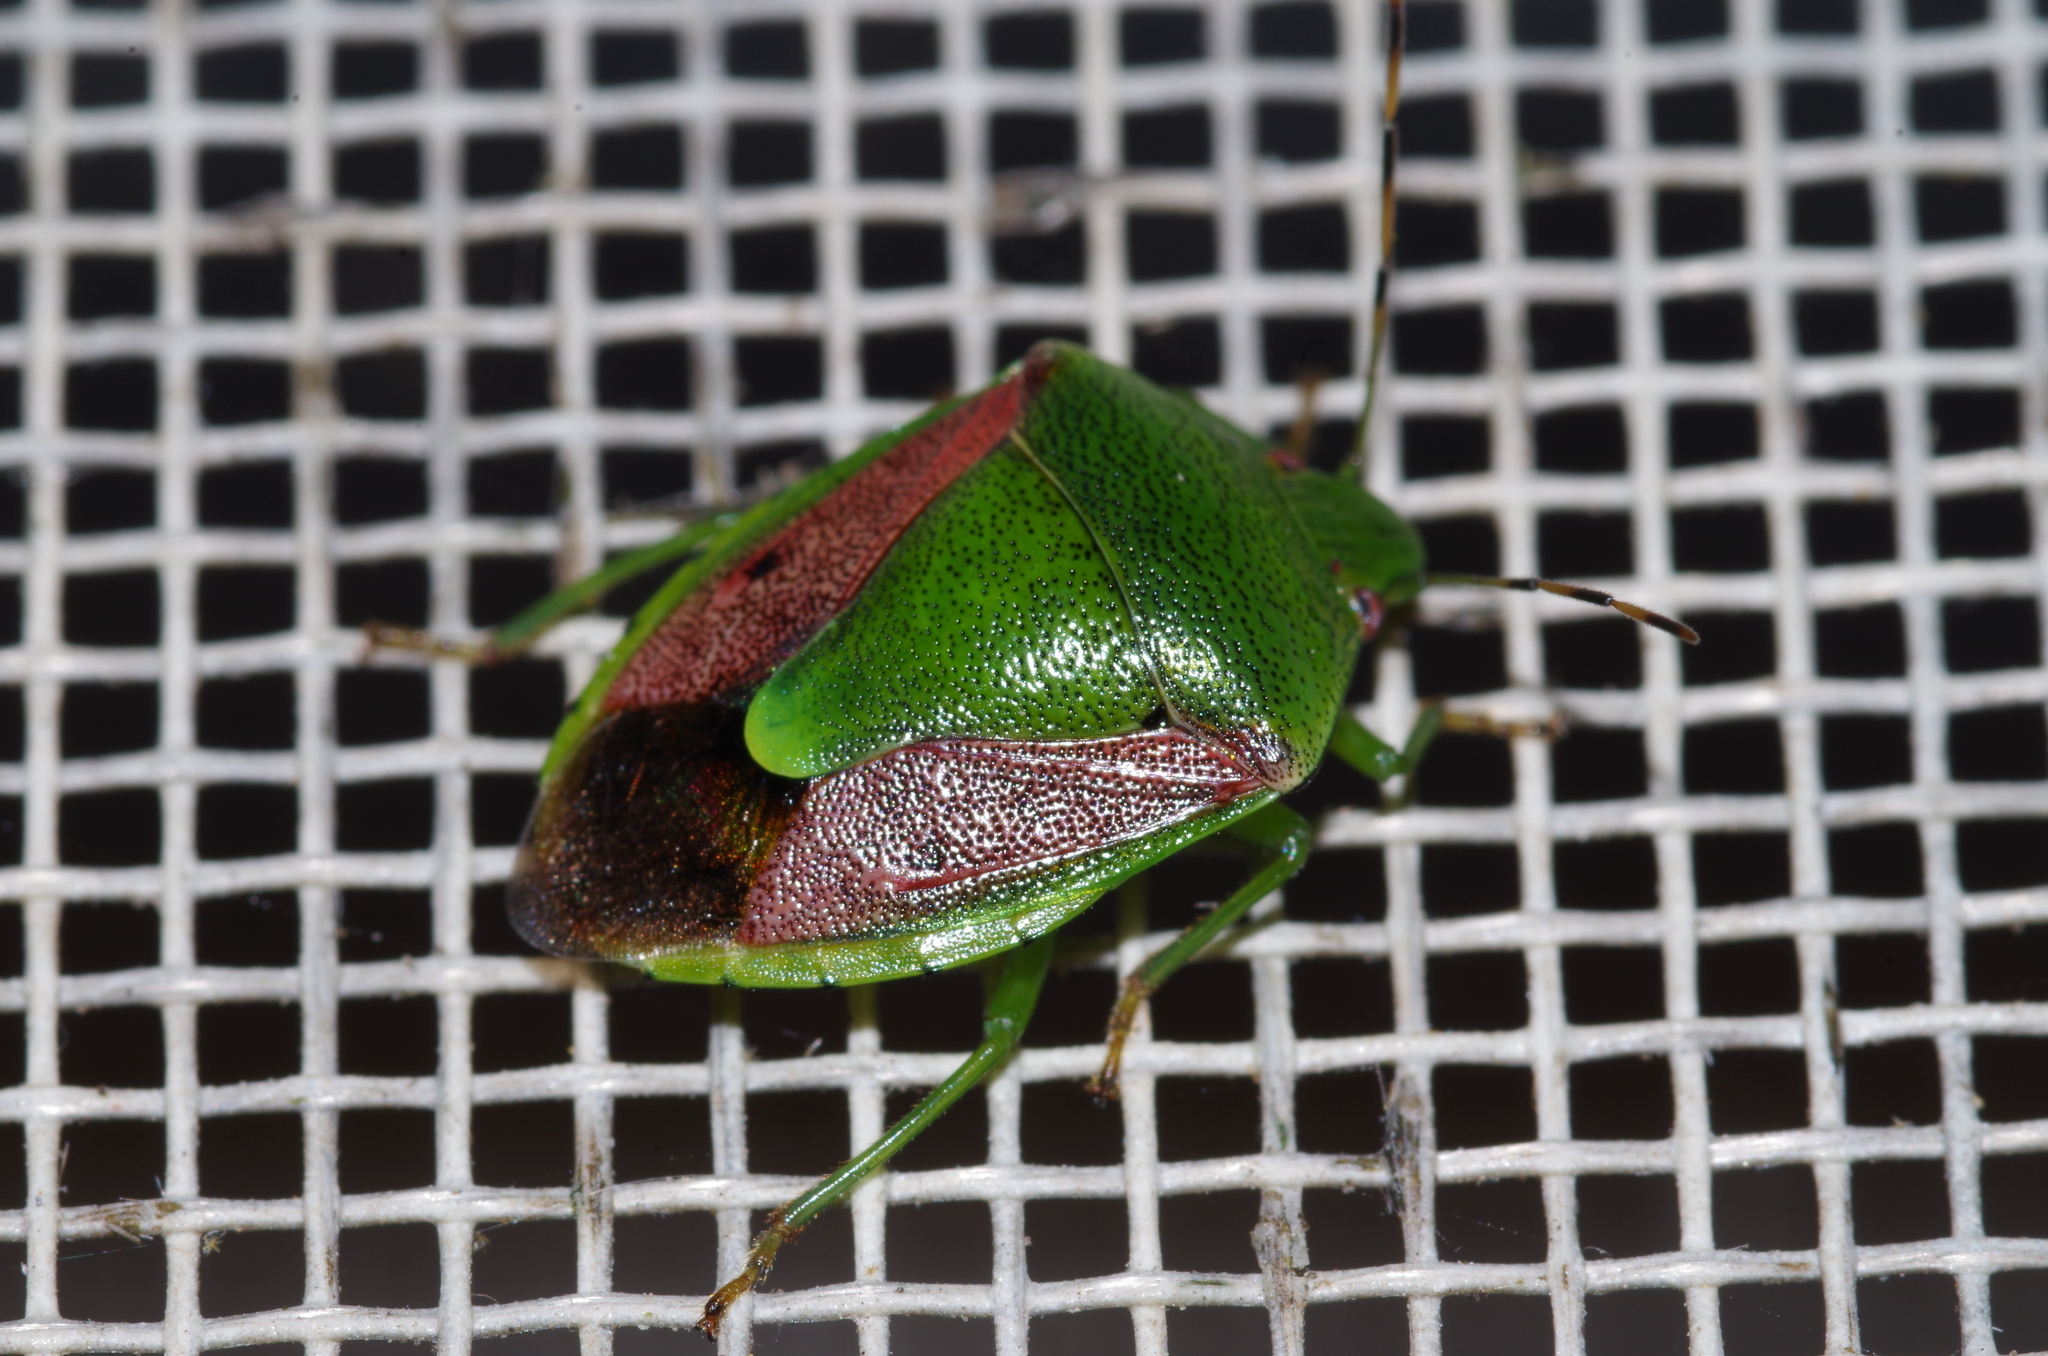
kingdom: Animalia
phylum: Arthropoda
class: Insecta
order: Hemiptera
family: Pentatomidae
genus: Plautia
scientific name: Plautia stali
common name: Stink bug
